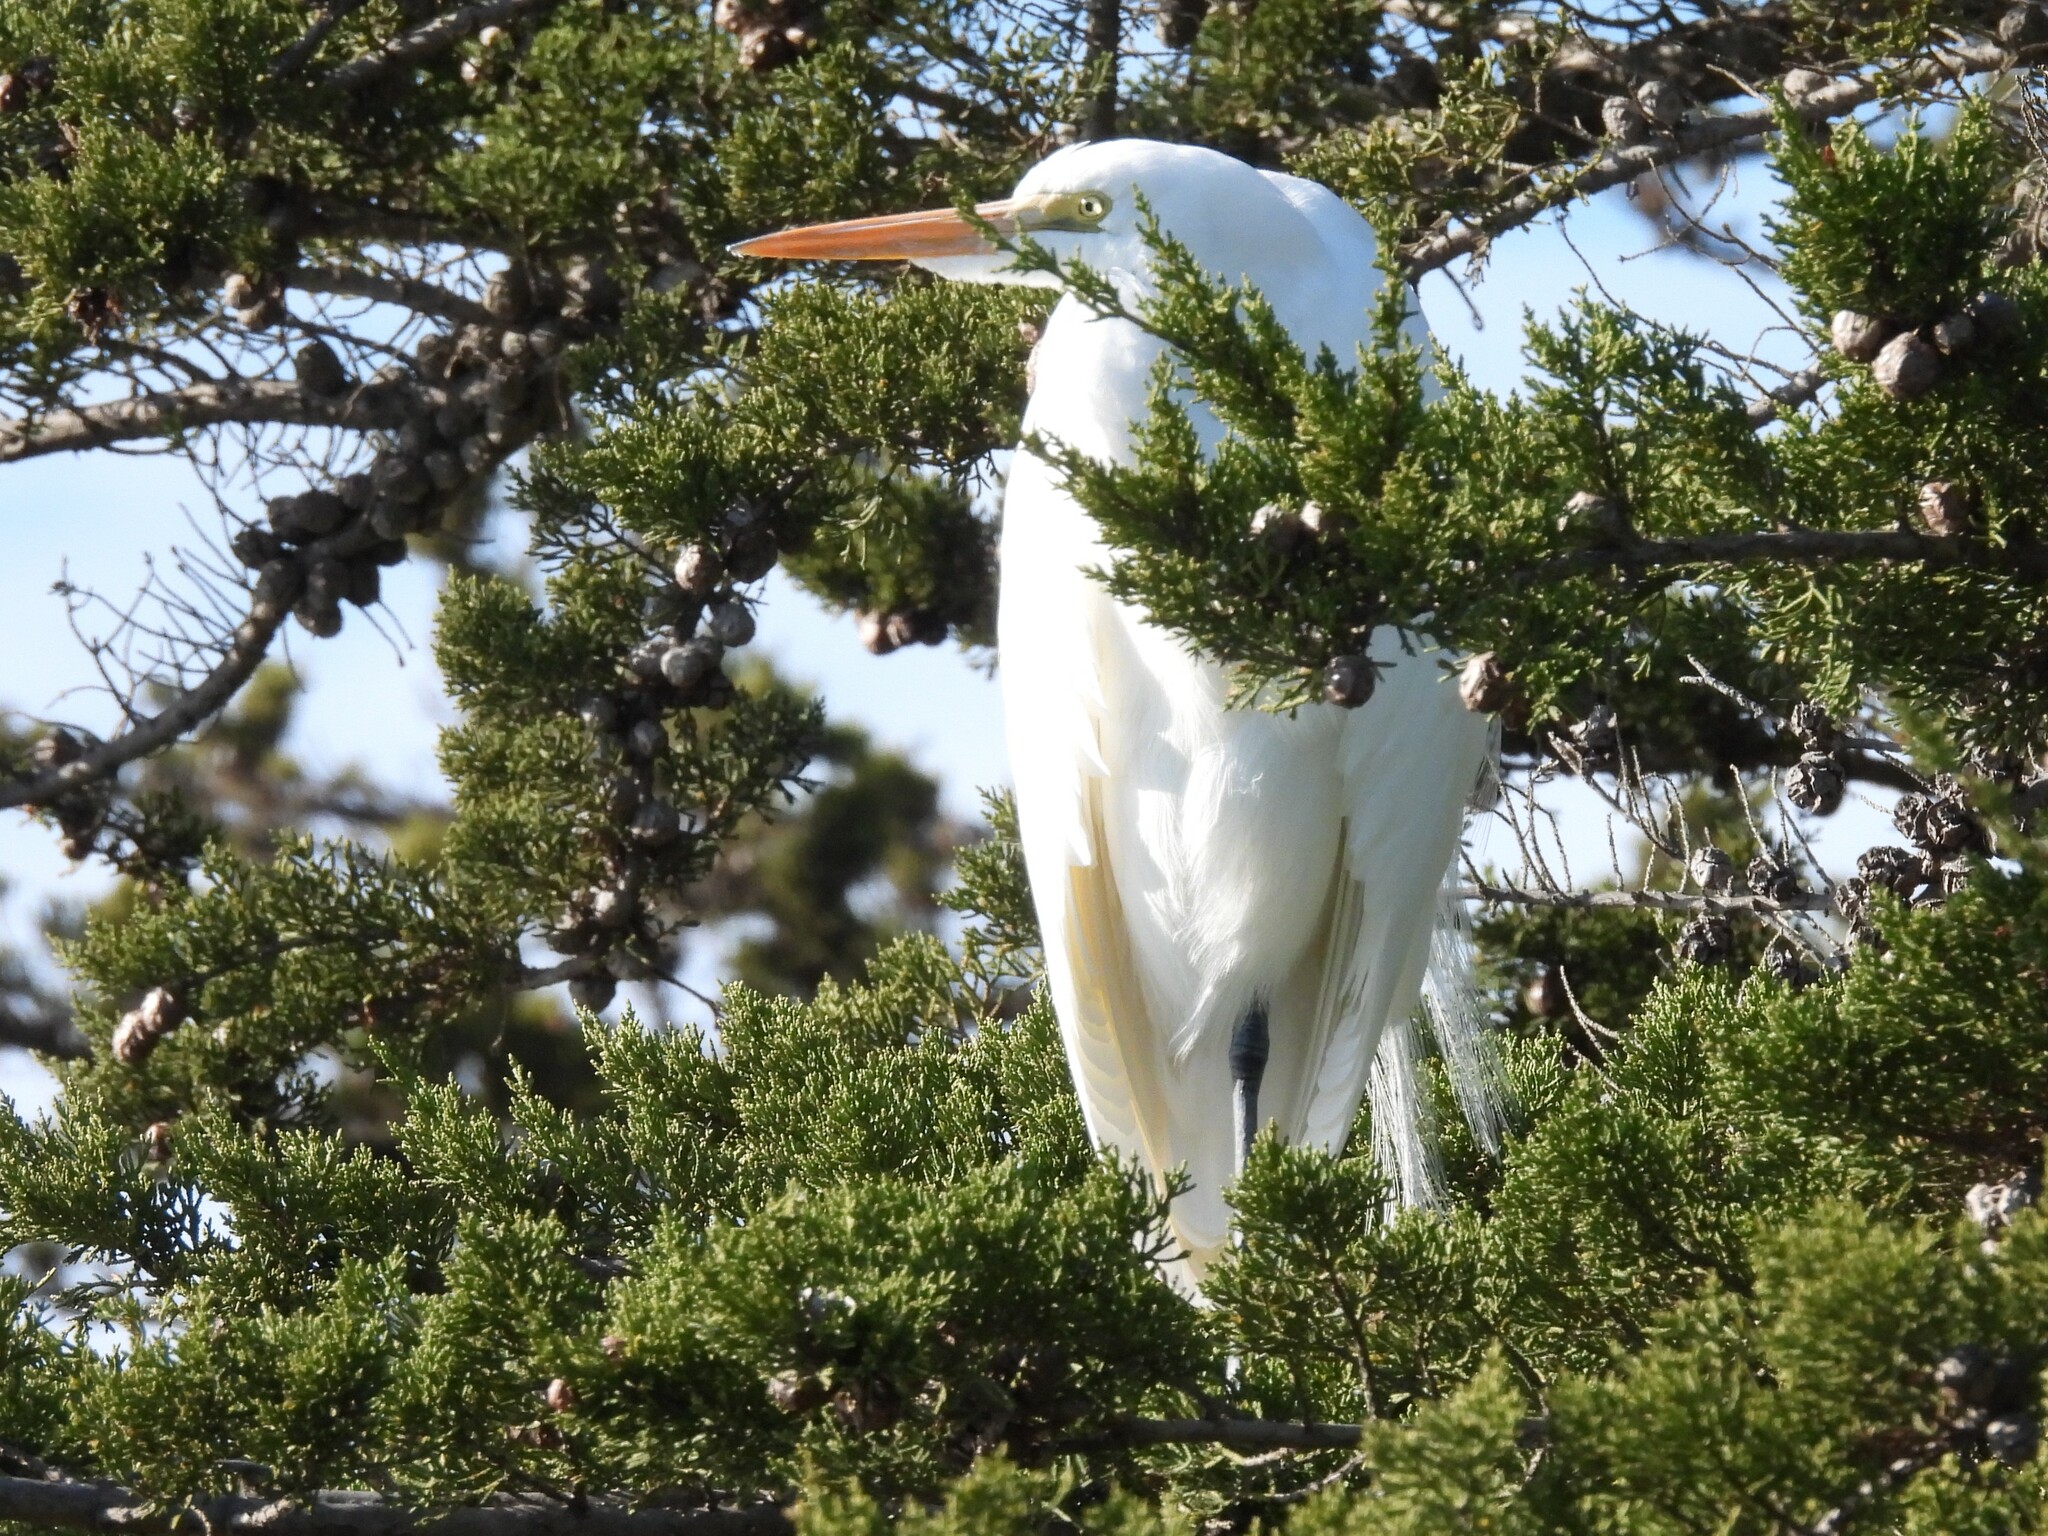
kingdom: Animalia
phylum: Chordata
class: Aves
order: Pelecaniformes
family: Ardeidae
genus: Ardea
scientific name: Ardea alba
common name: Great egret
